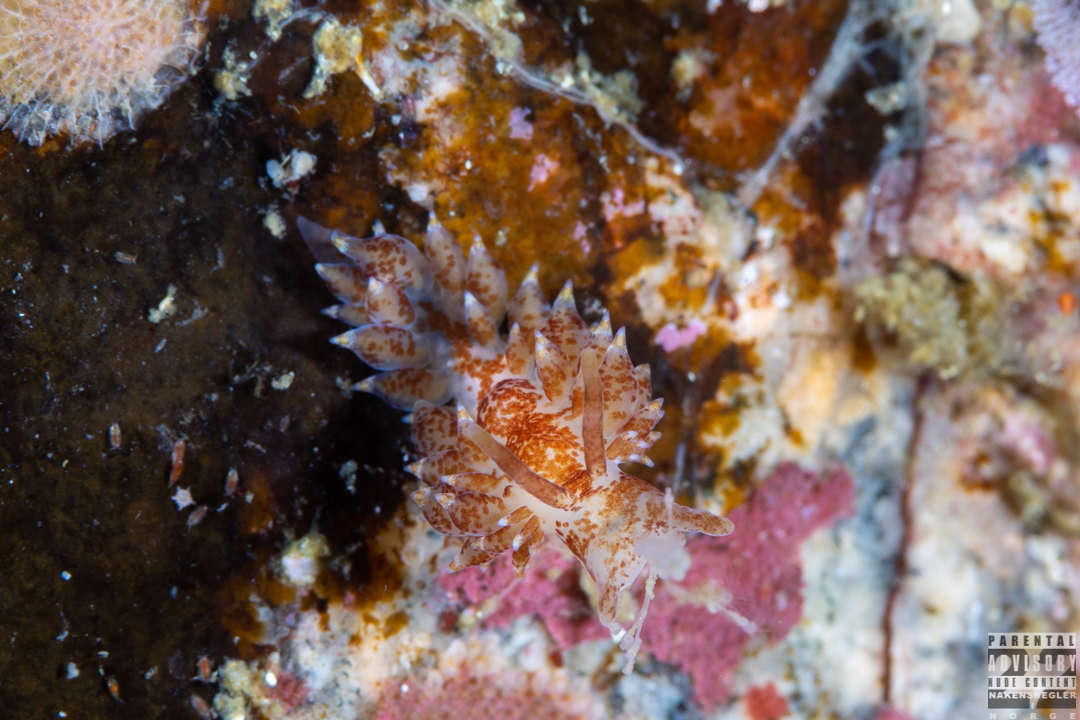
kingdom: Animalia
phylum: Mollusca
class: Gastropoda
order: Nudibranchia
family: Eubranchidae
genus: Amphorina
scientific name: Amphorina pallida
